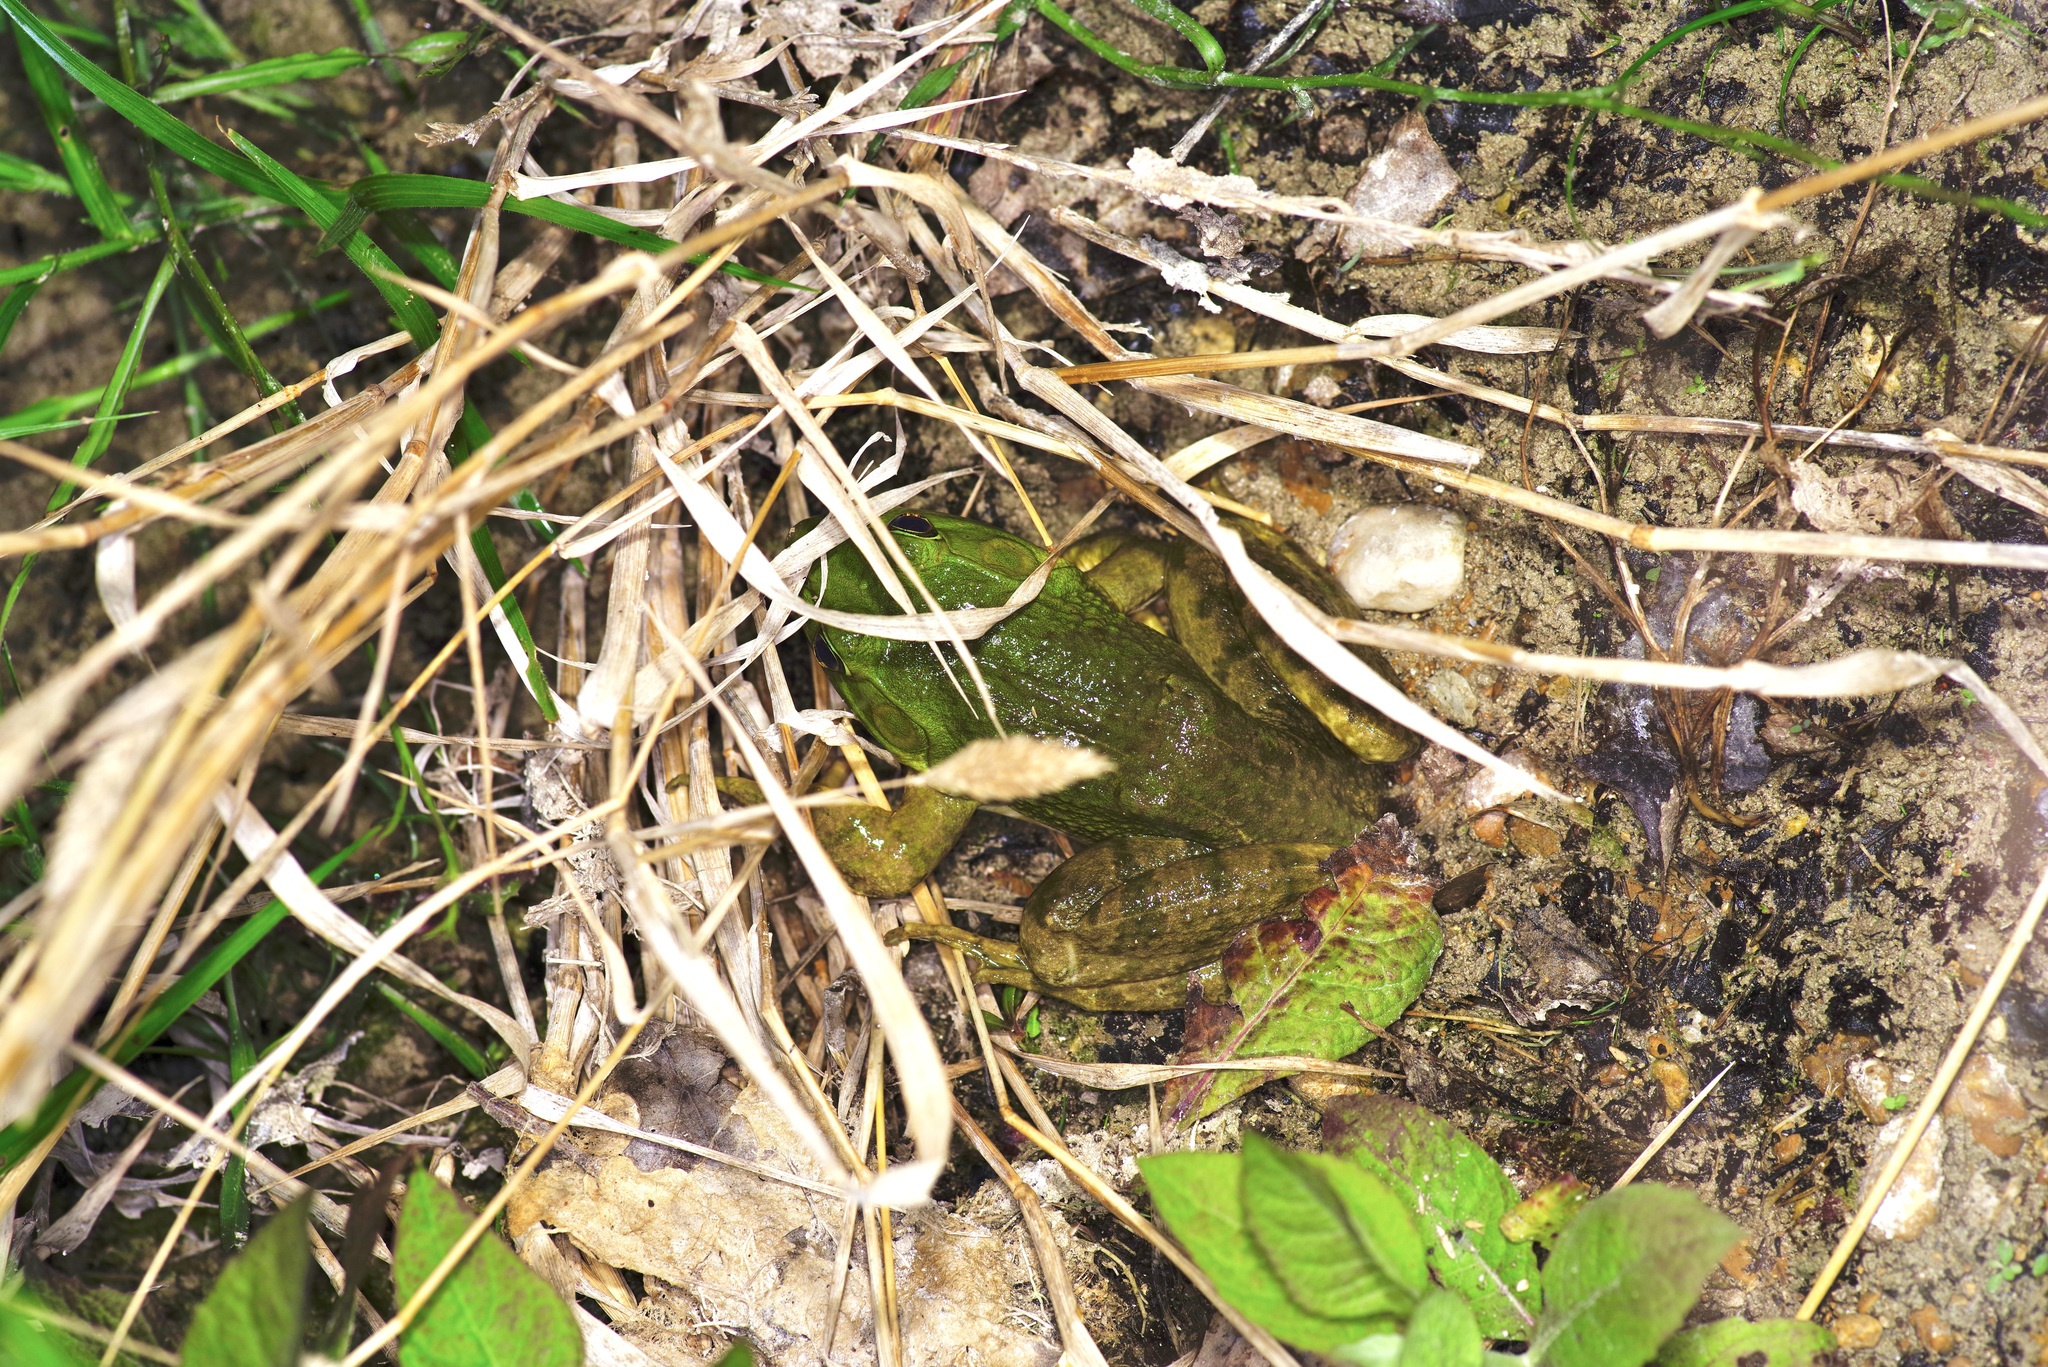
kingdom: Animalia
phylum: Chordata
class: Amphibia
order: Anura
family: Ranidae
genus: Lithobates
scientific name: Lithobates catesbeianus
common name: American bullfrog
